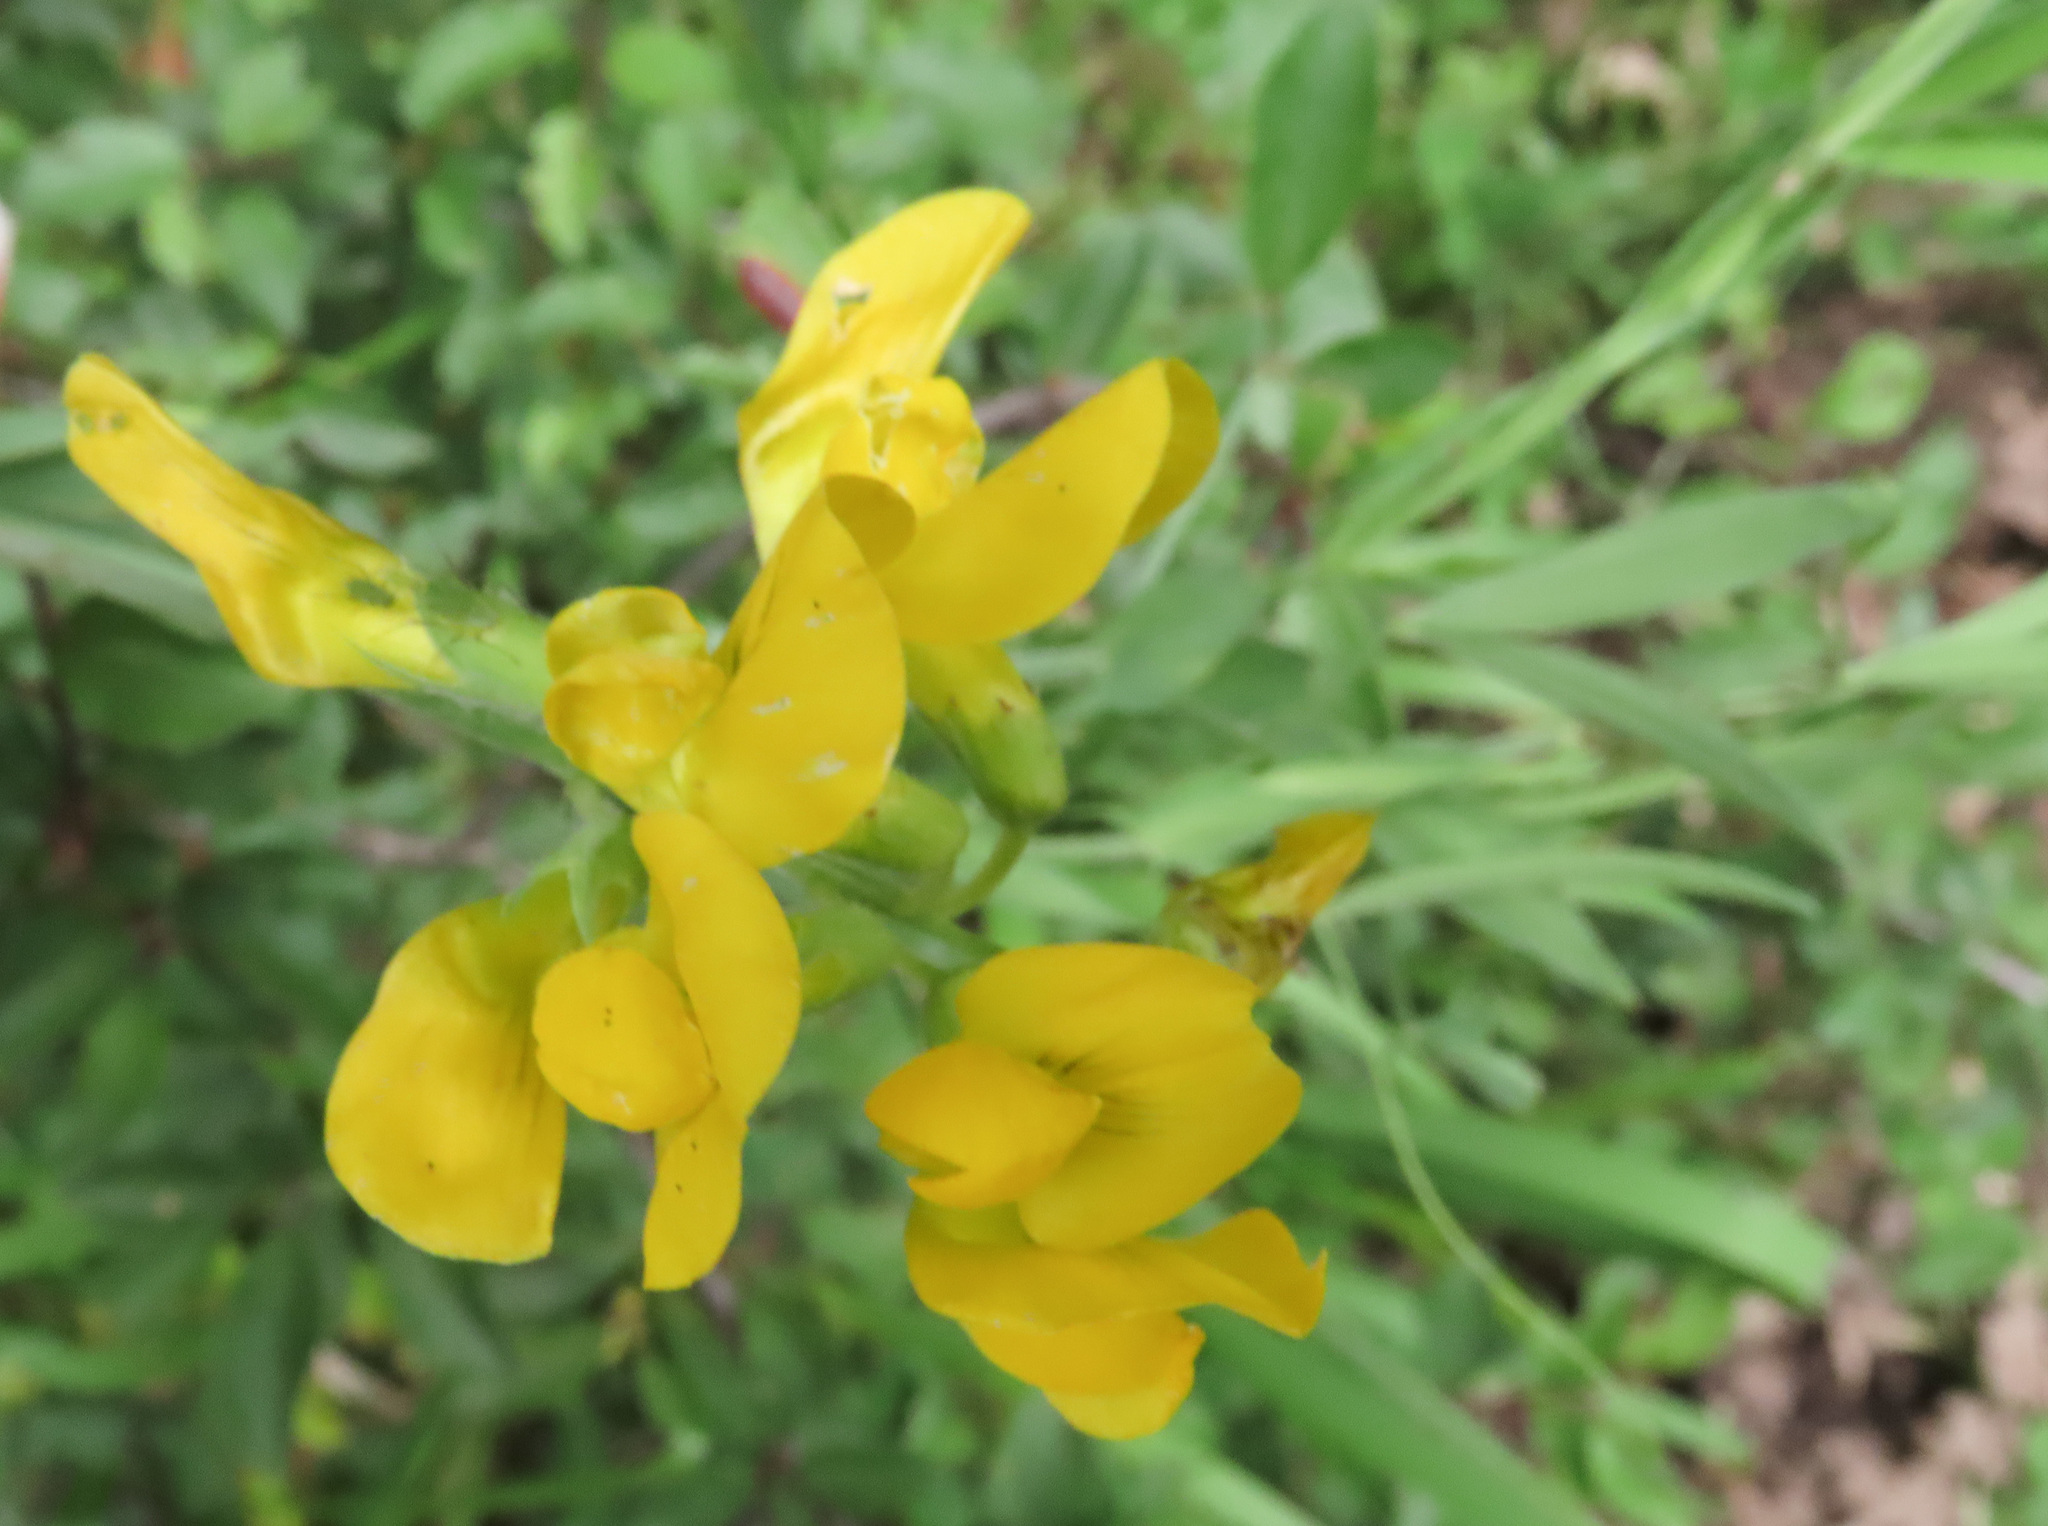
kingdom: Plantae
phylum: Tracheophyta
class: Magnoliopsida
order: Fabales
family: Fabaceae
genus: Lathyrus
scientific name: Lathyrus pratensis
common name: Meadow vetchling
